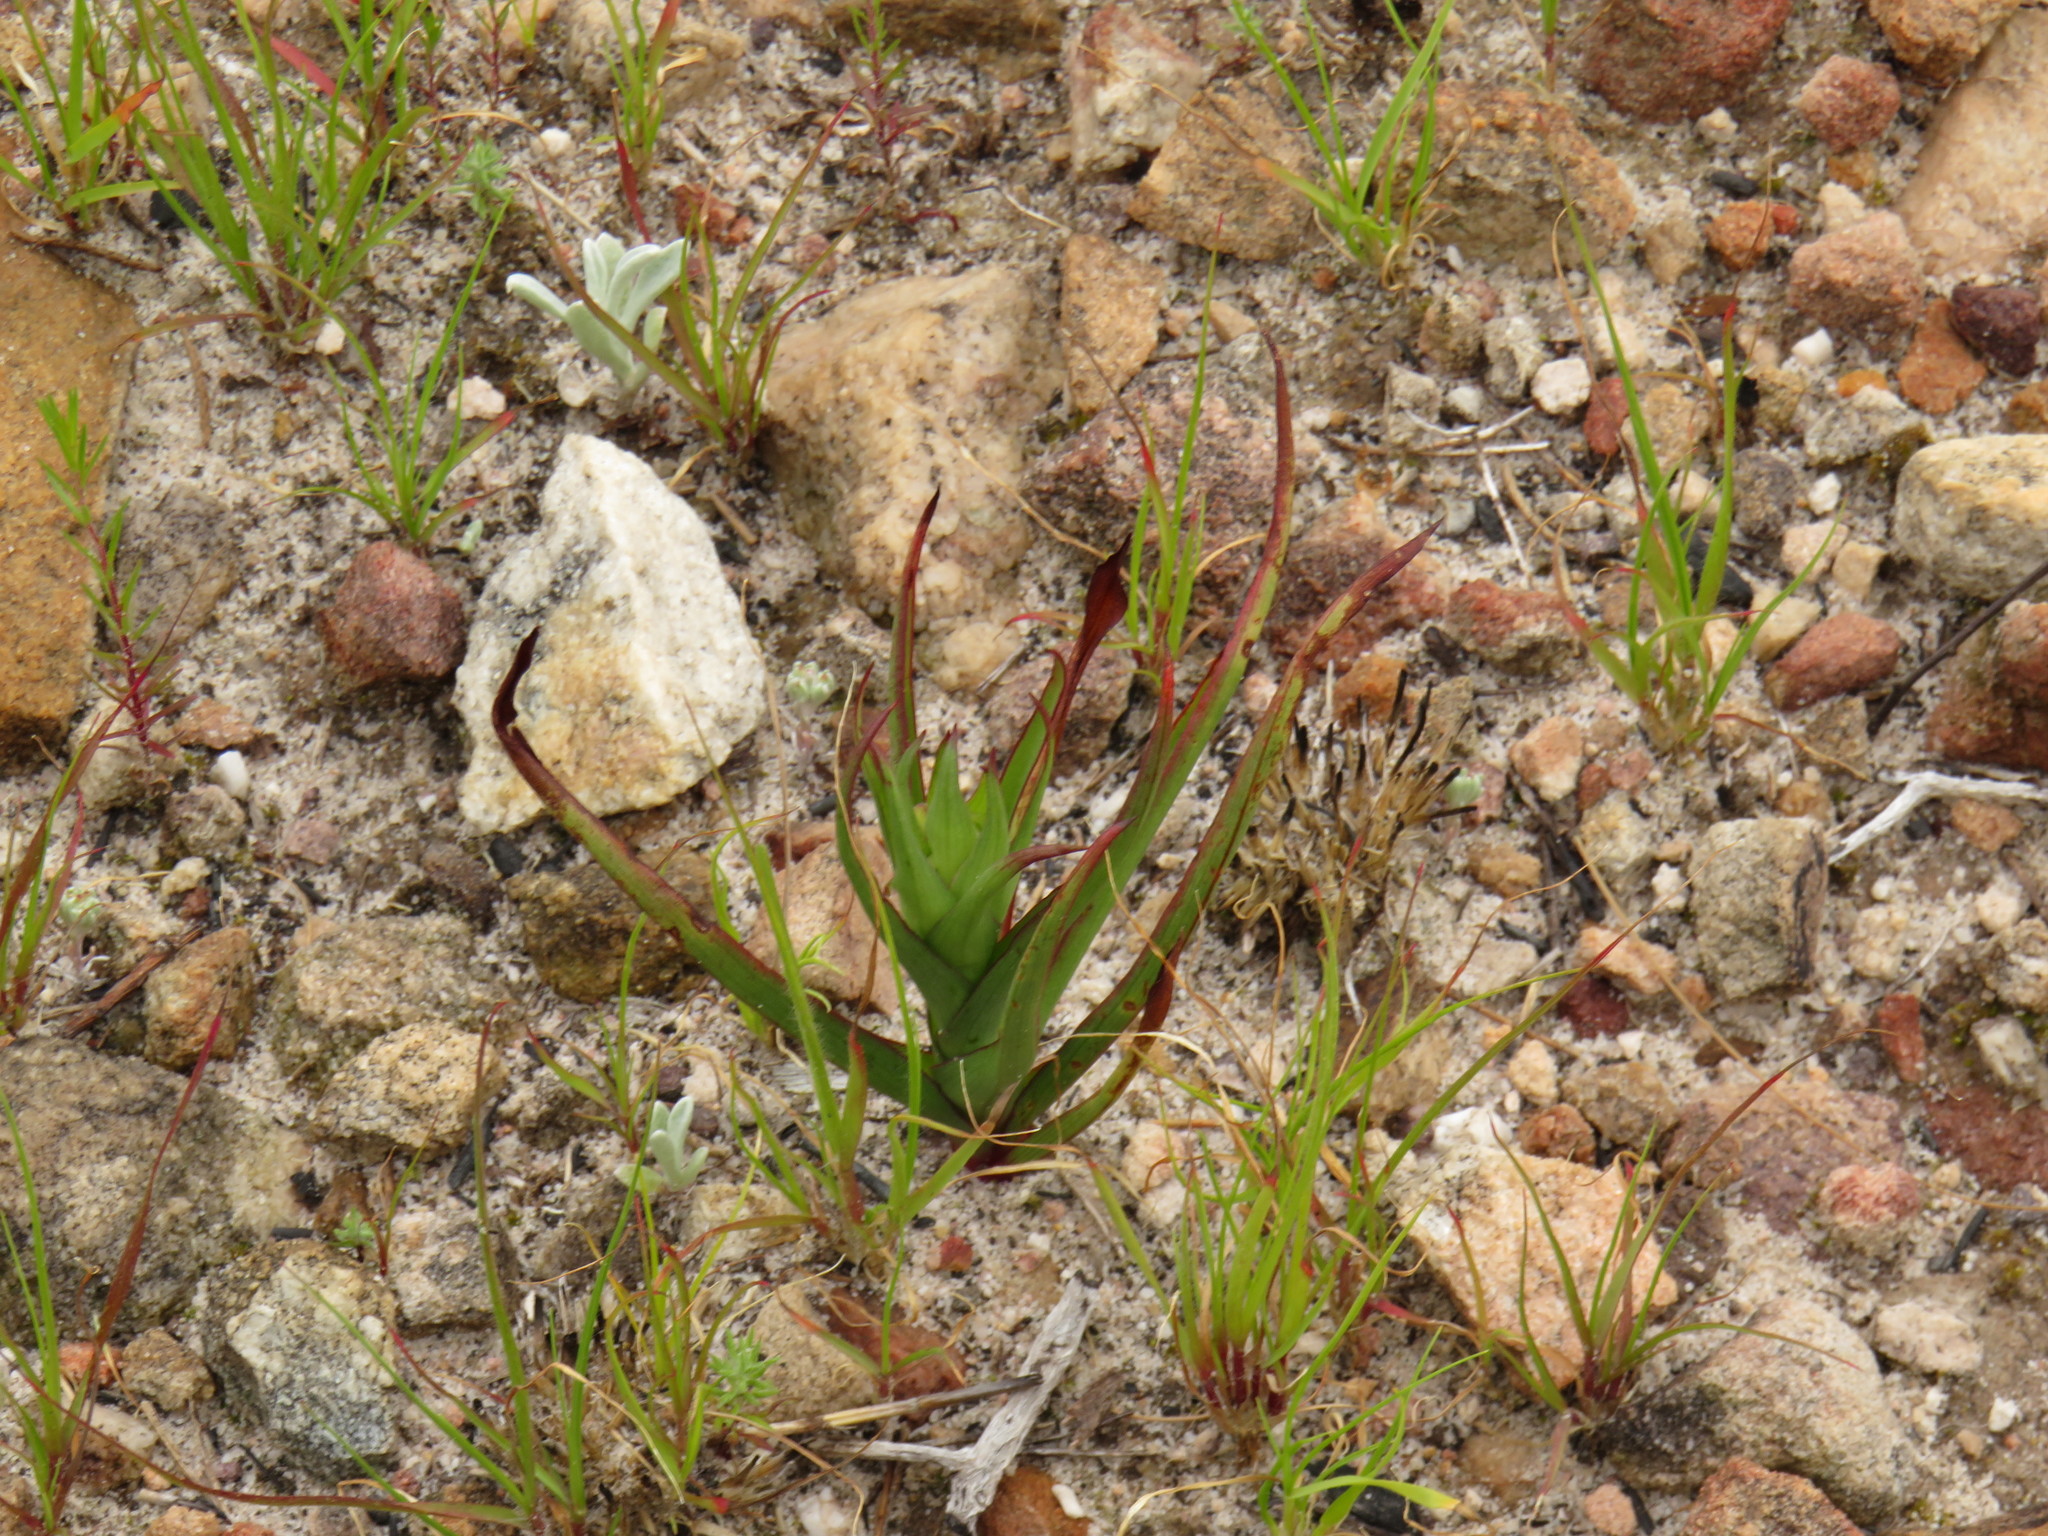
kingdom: Plantae
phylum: Tracheophyta
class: Liliopsida
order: Asparagales
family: Orchidaceae
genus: Disa
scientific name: Disa bracteata
